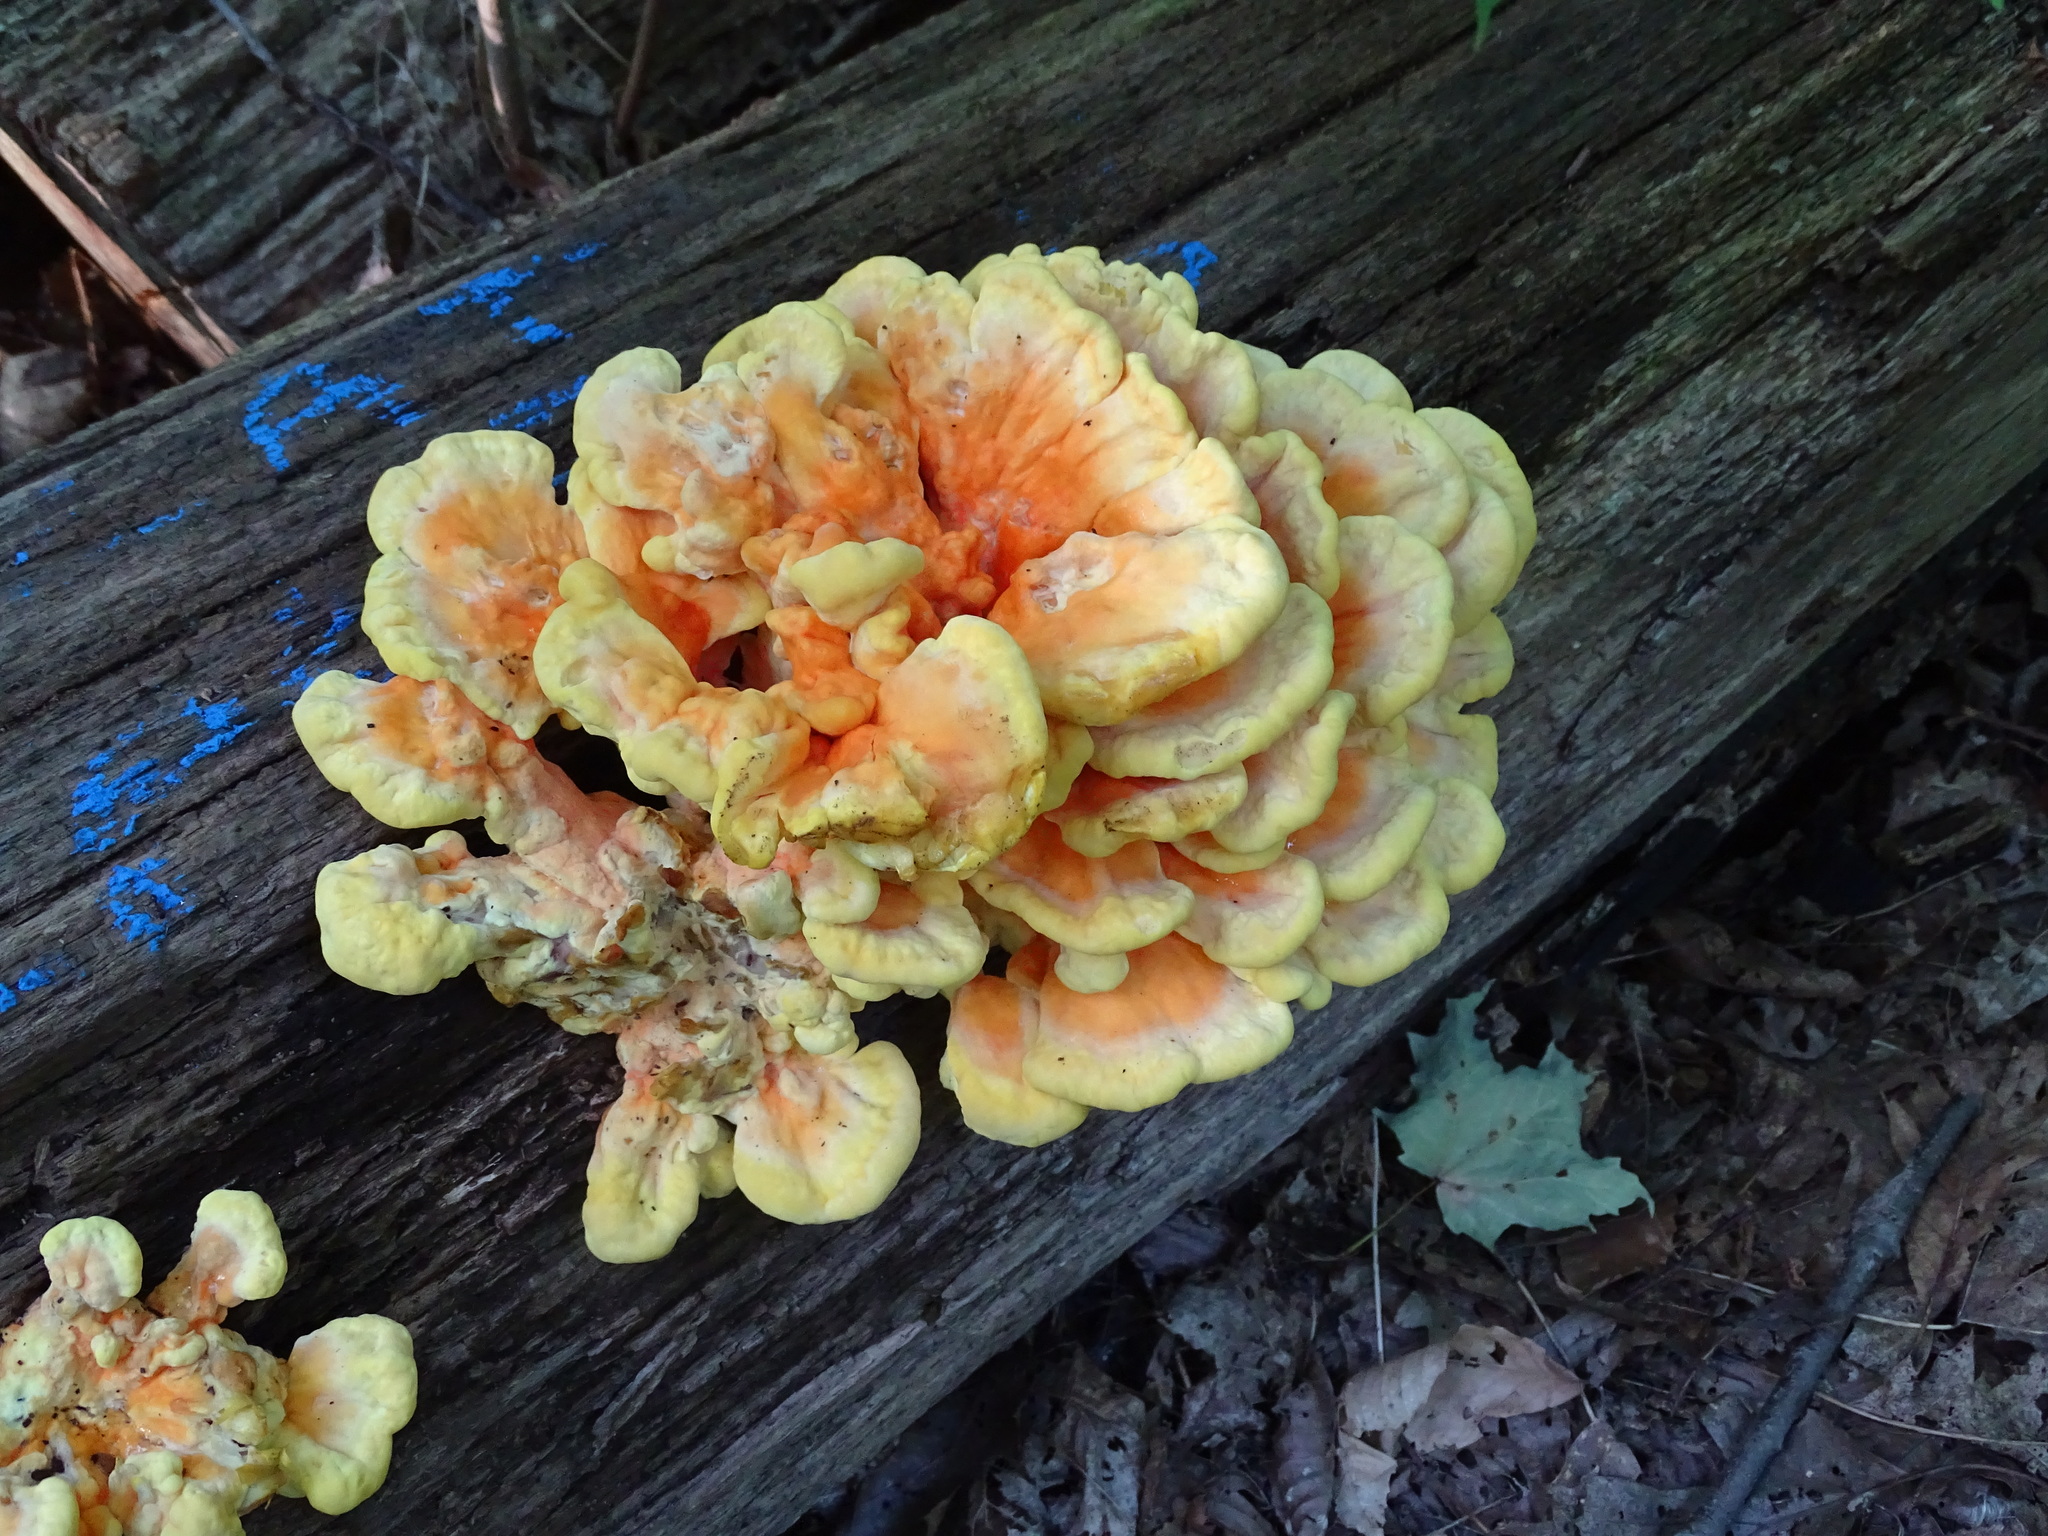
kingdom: Fungi
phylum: Basidiomycota
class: Agaricomycetes
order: Polyporales
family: Laetiporaceae
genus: Laetiporus
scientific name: Laetiporus sulphureus
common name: Chicken of the woods
